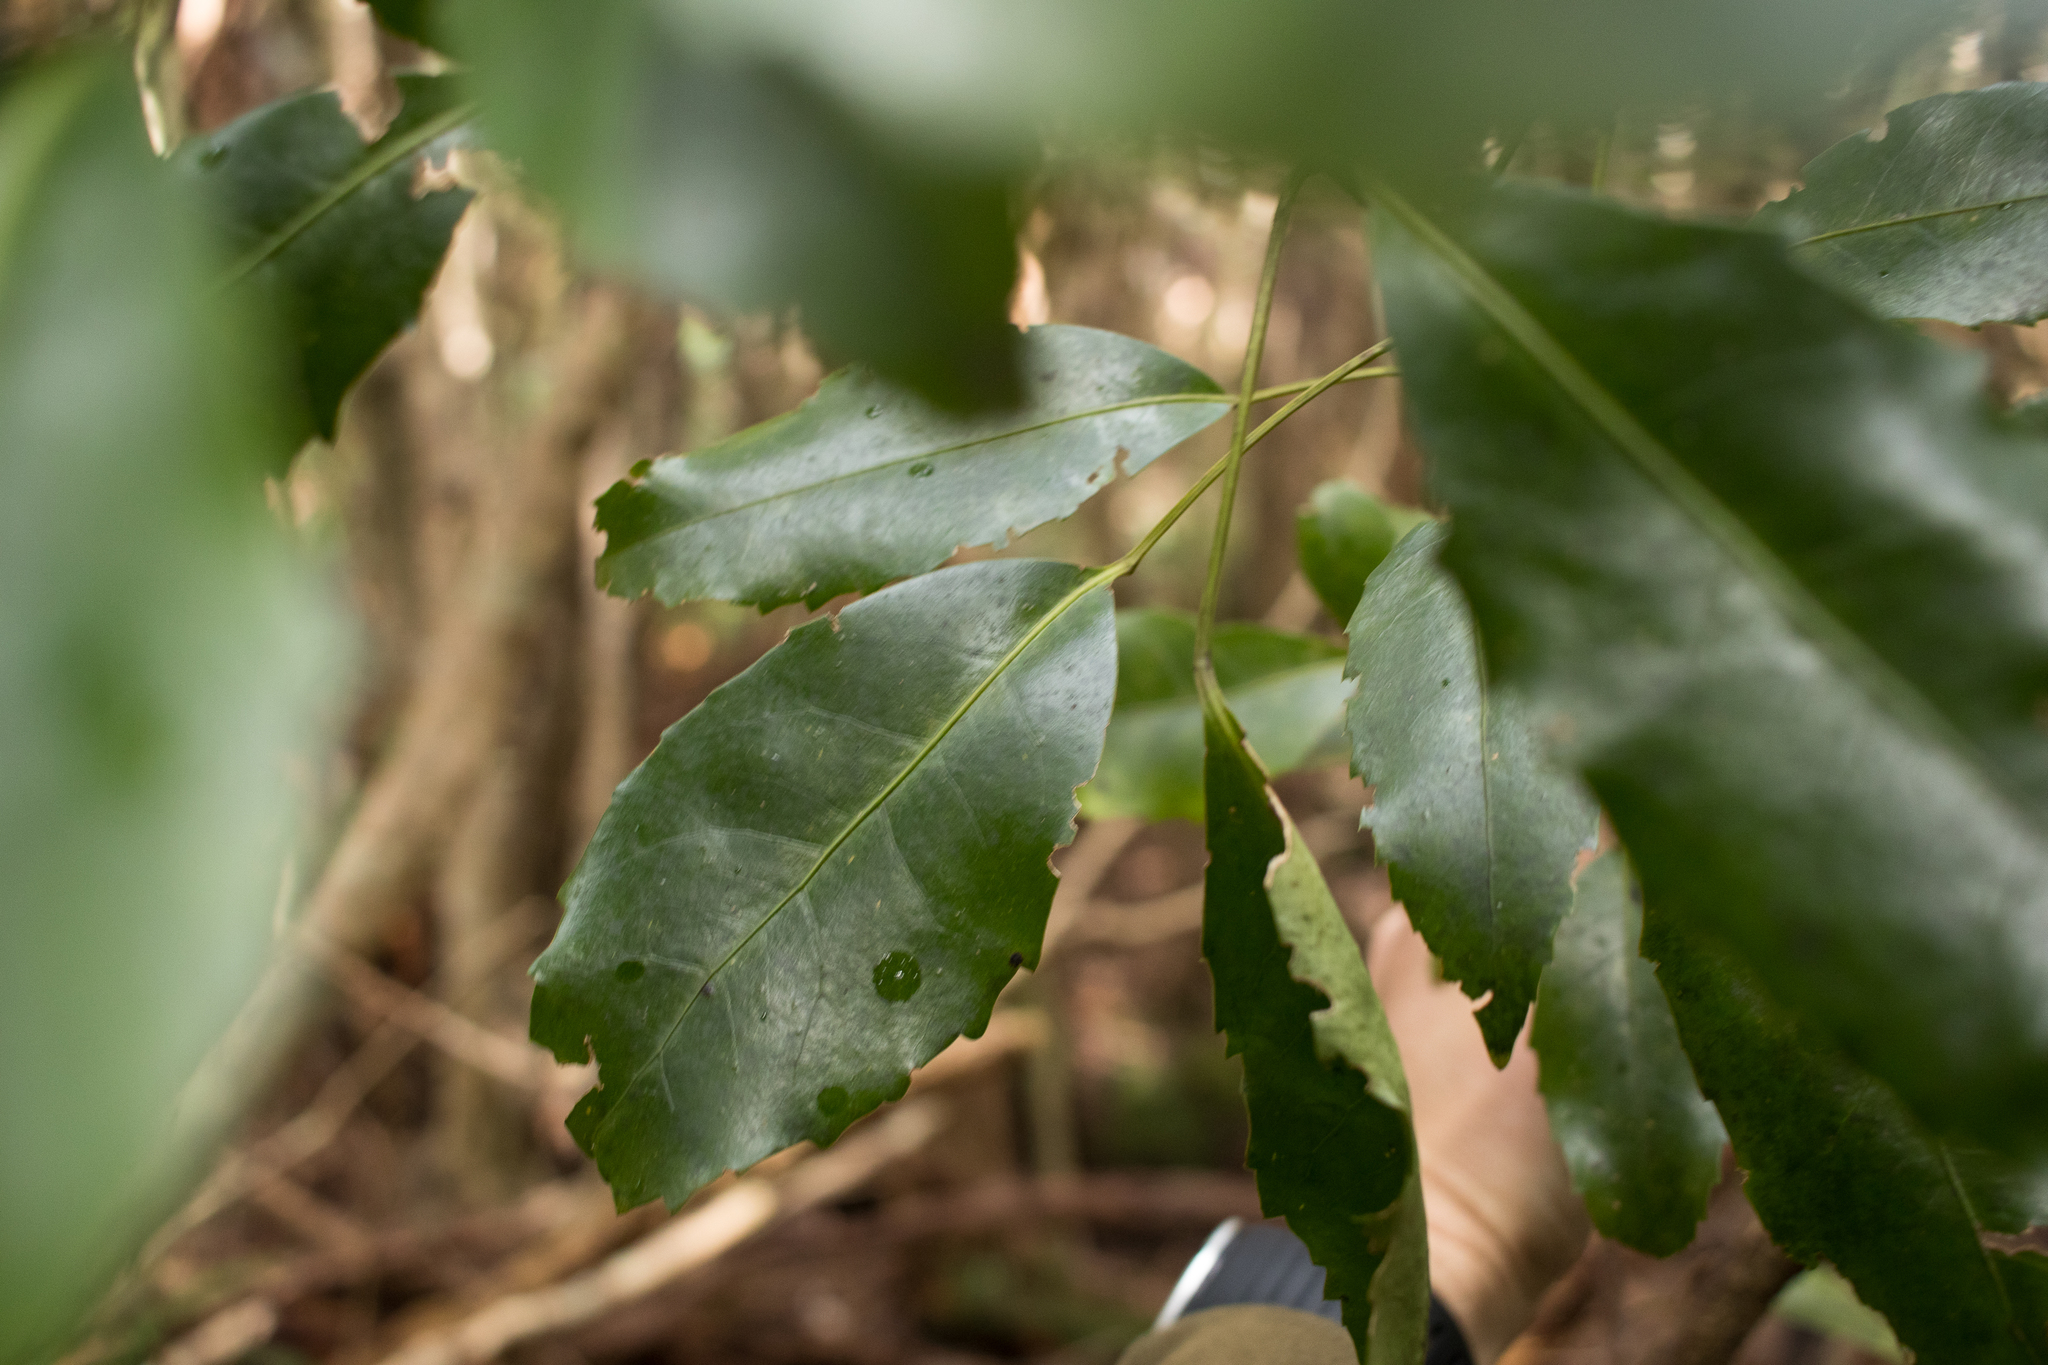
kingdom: Plantae
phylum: Tracheophyta
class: Magnoliopsida
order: Apiales
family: Araliaceae
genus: Raukaua
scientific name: Raukaua simplex
